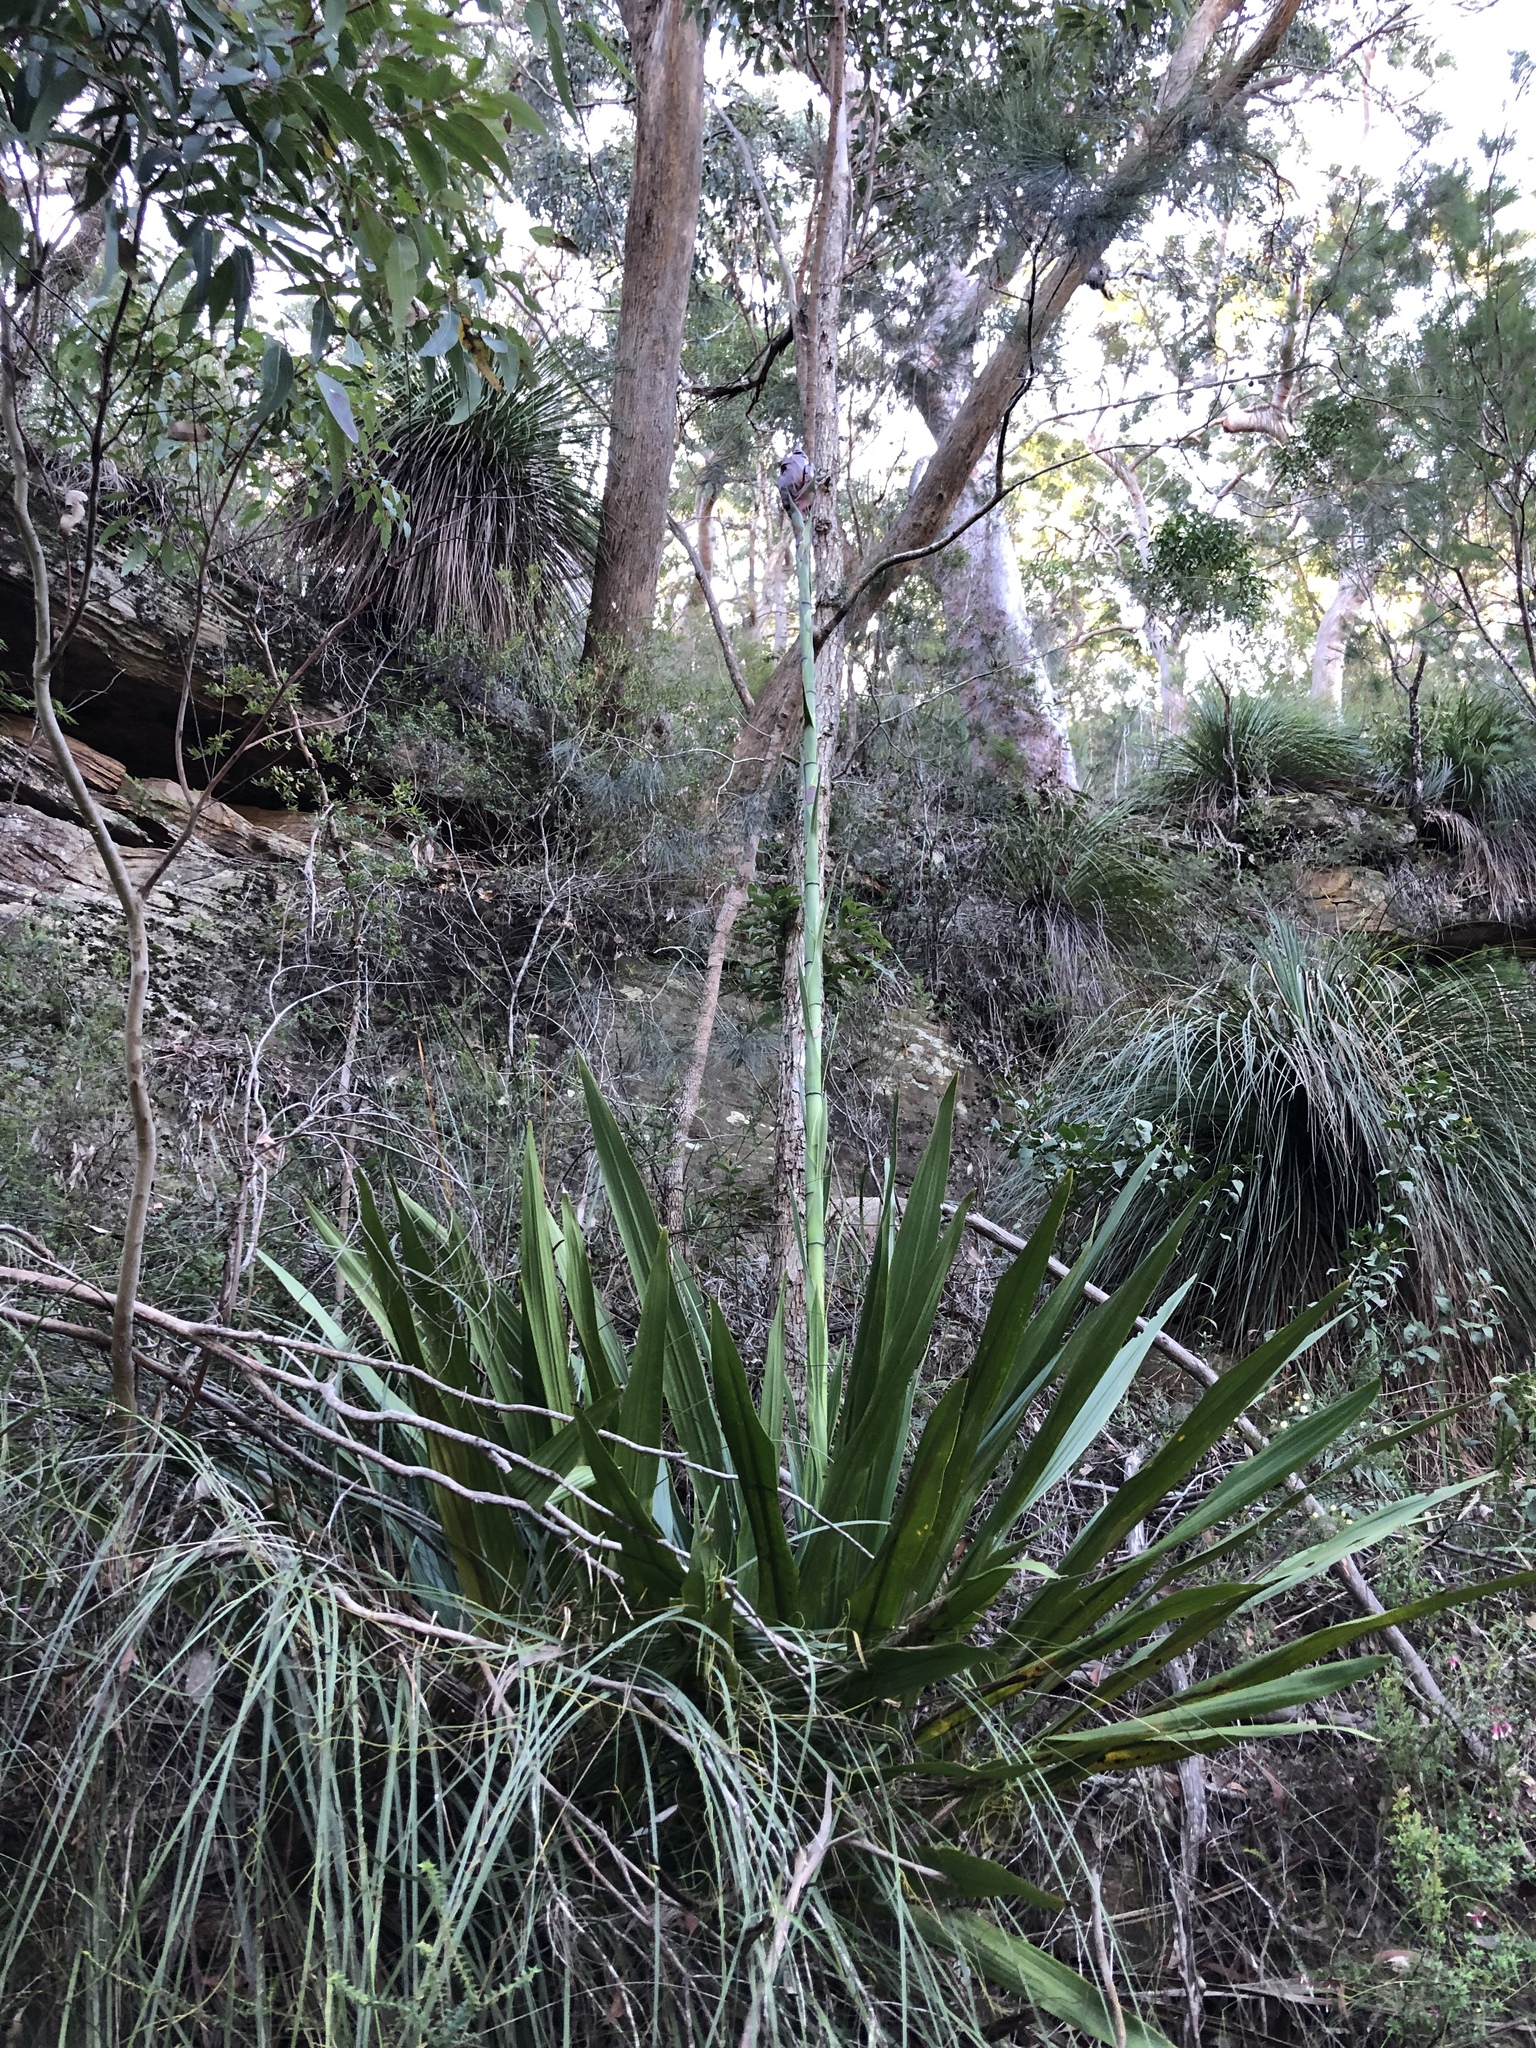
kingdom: Plantae
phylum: Tracheophyta
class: Liliopsida
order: Asparagales
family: Doryanthaceae
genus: Doryanthes
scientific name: Doryanthes excelsa
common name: Giant-lily
